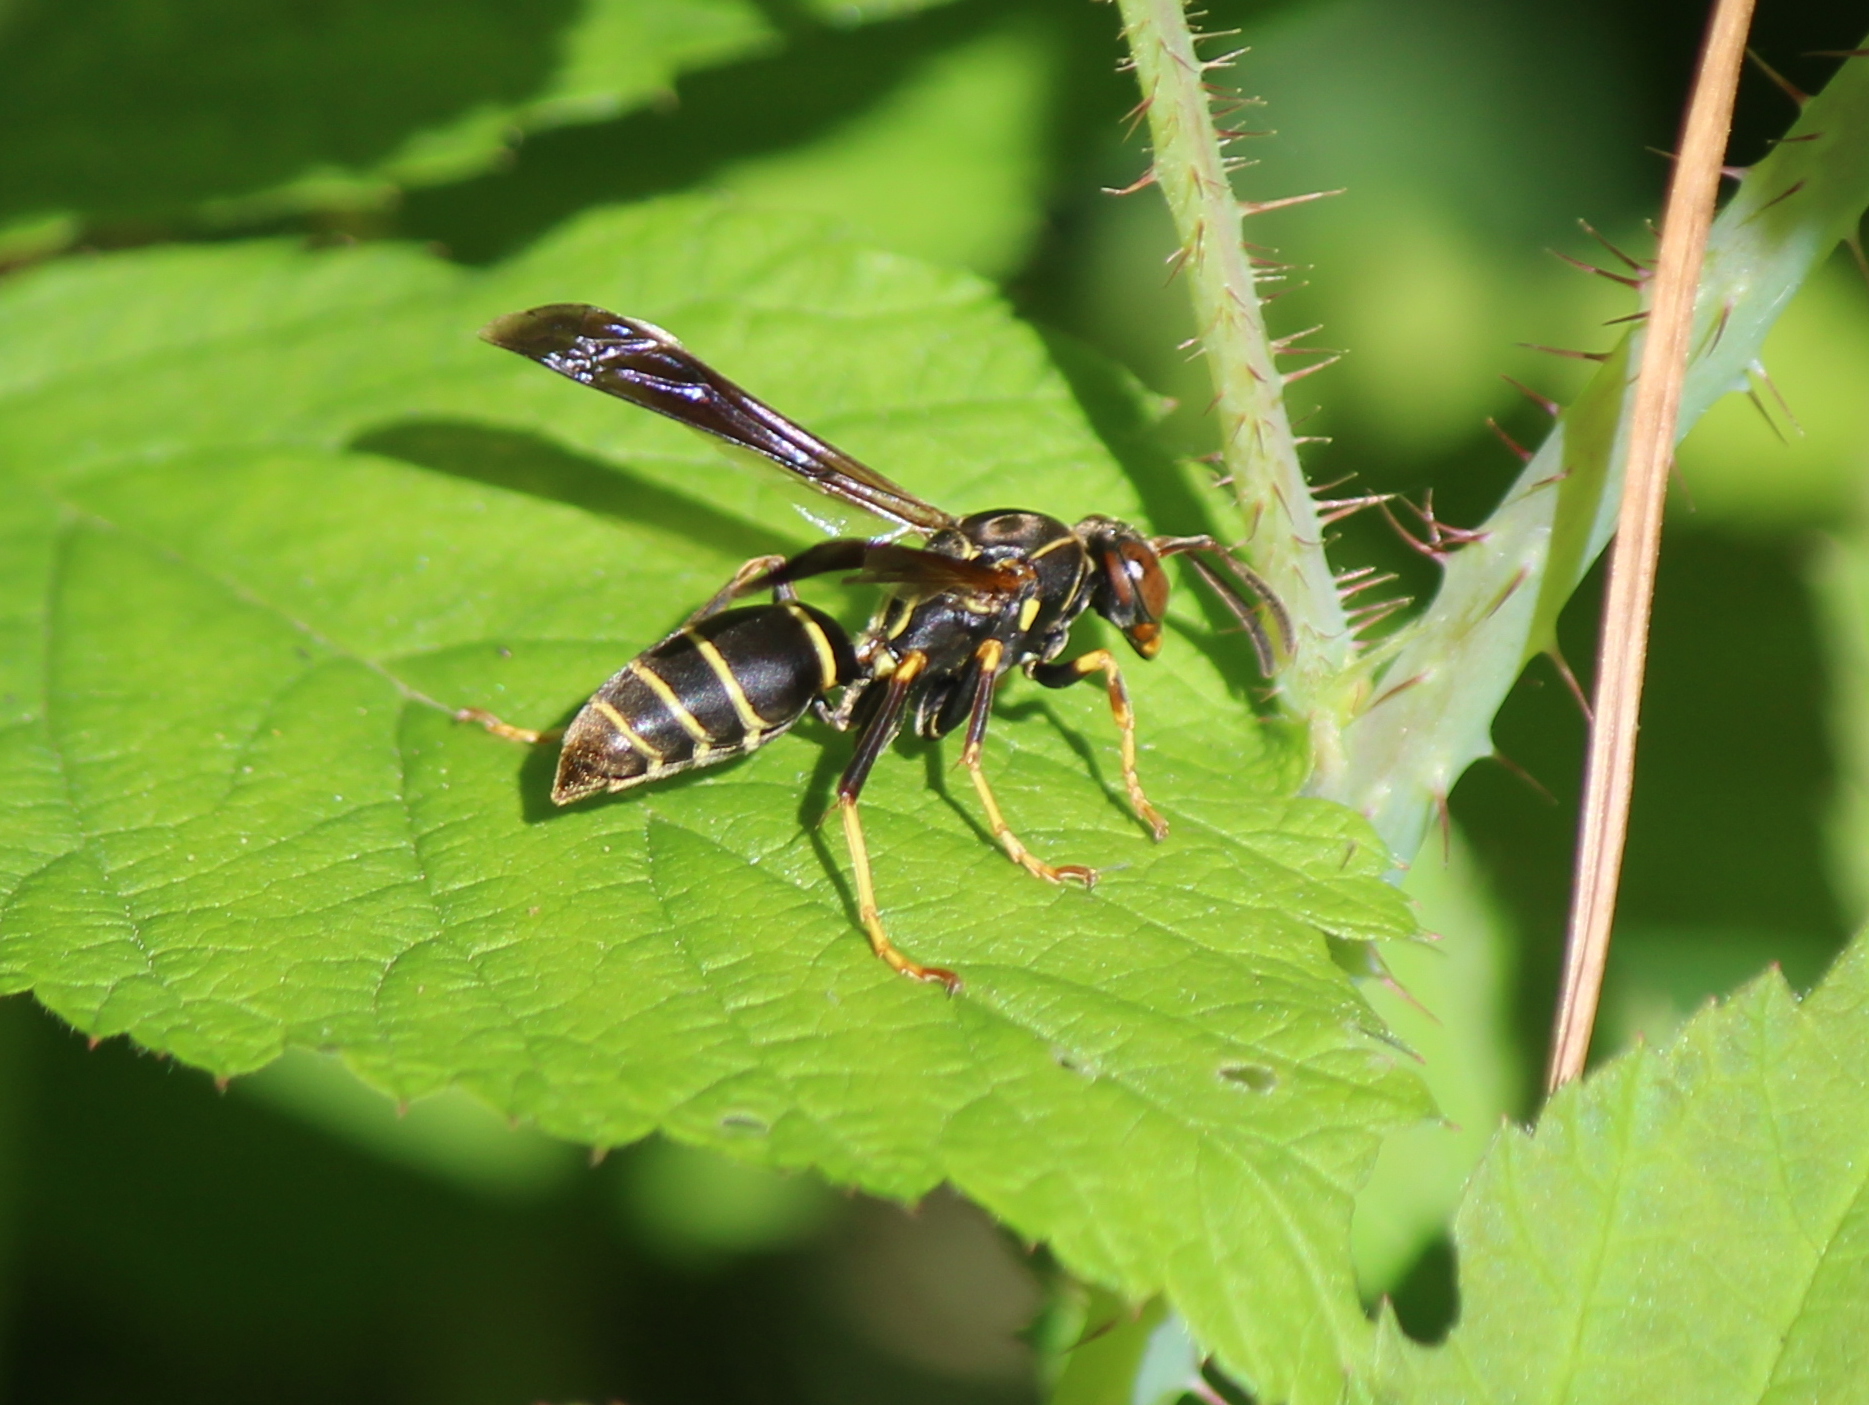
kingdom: Animalia
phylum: Arthropoda
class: Insecta
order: Hymenoptera
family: Eumenidae
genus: Polistes
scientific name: Polistes fuscatus
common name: Dark paper wasp
